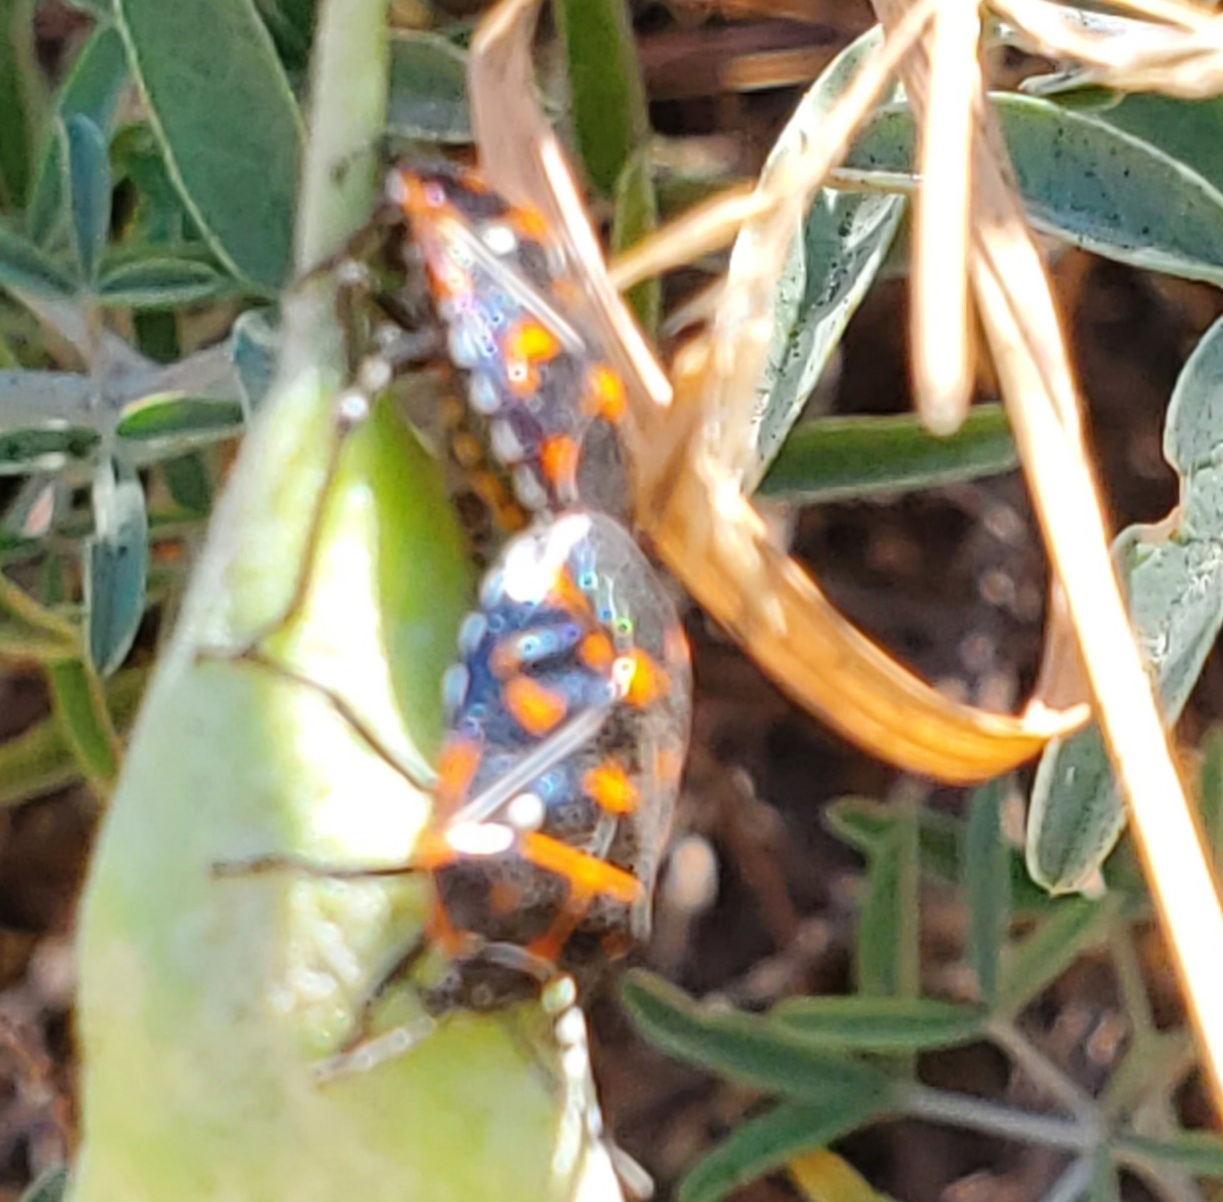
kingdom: Animalia
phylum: Arthropoda
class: Insecta
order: Hemiptera
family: Pentatomidae
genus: Murgantia
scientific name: Murgantia histrionica
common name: Harlequin bug
